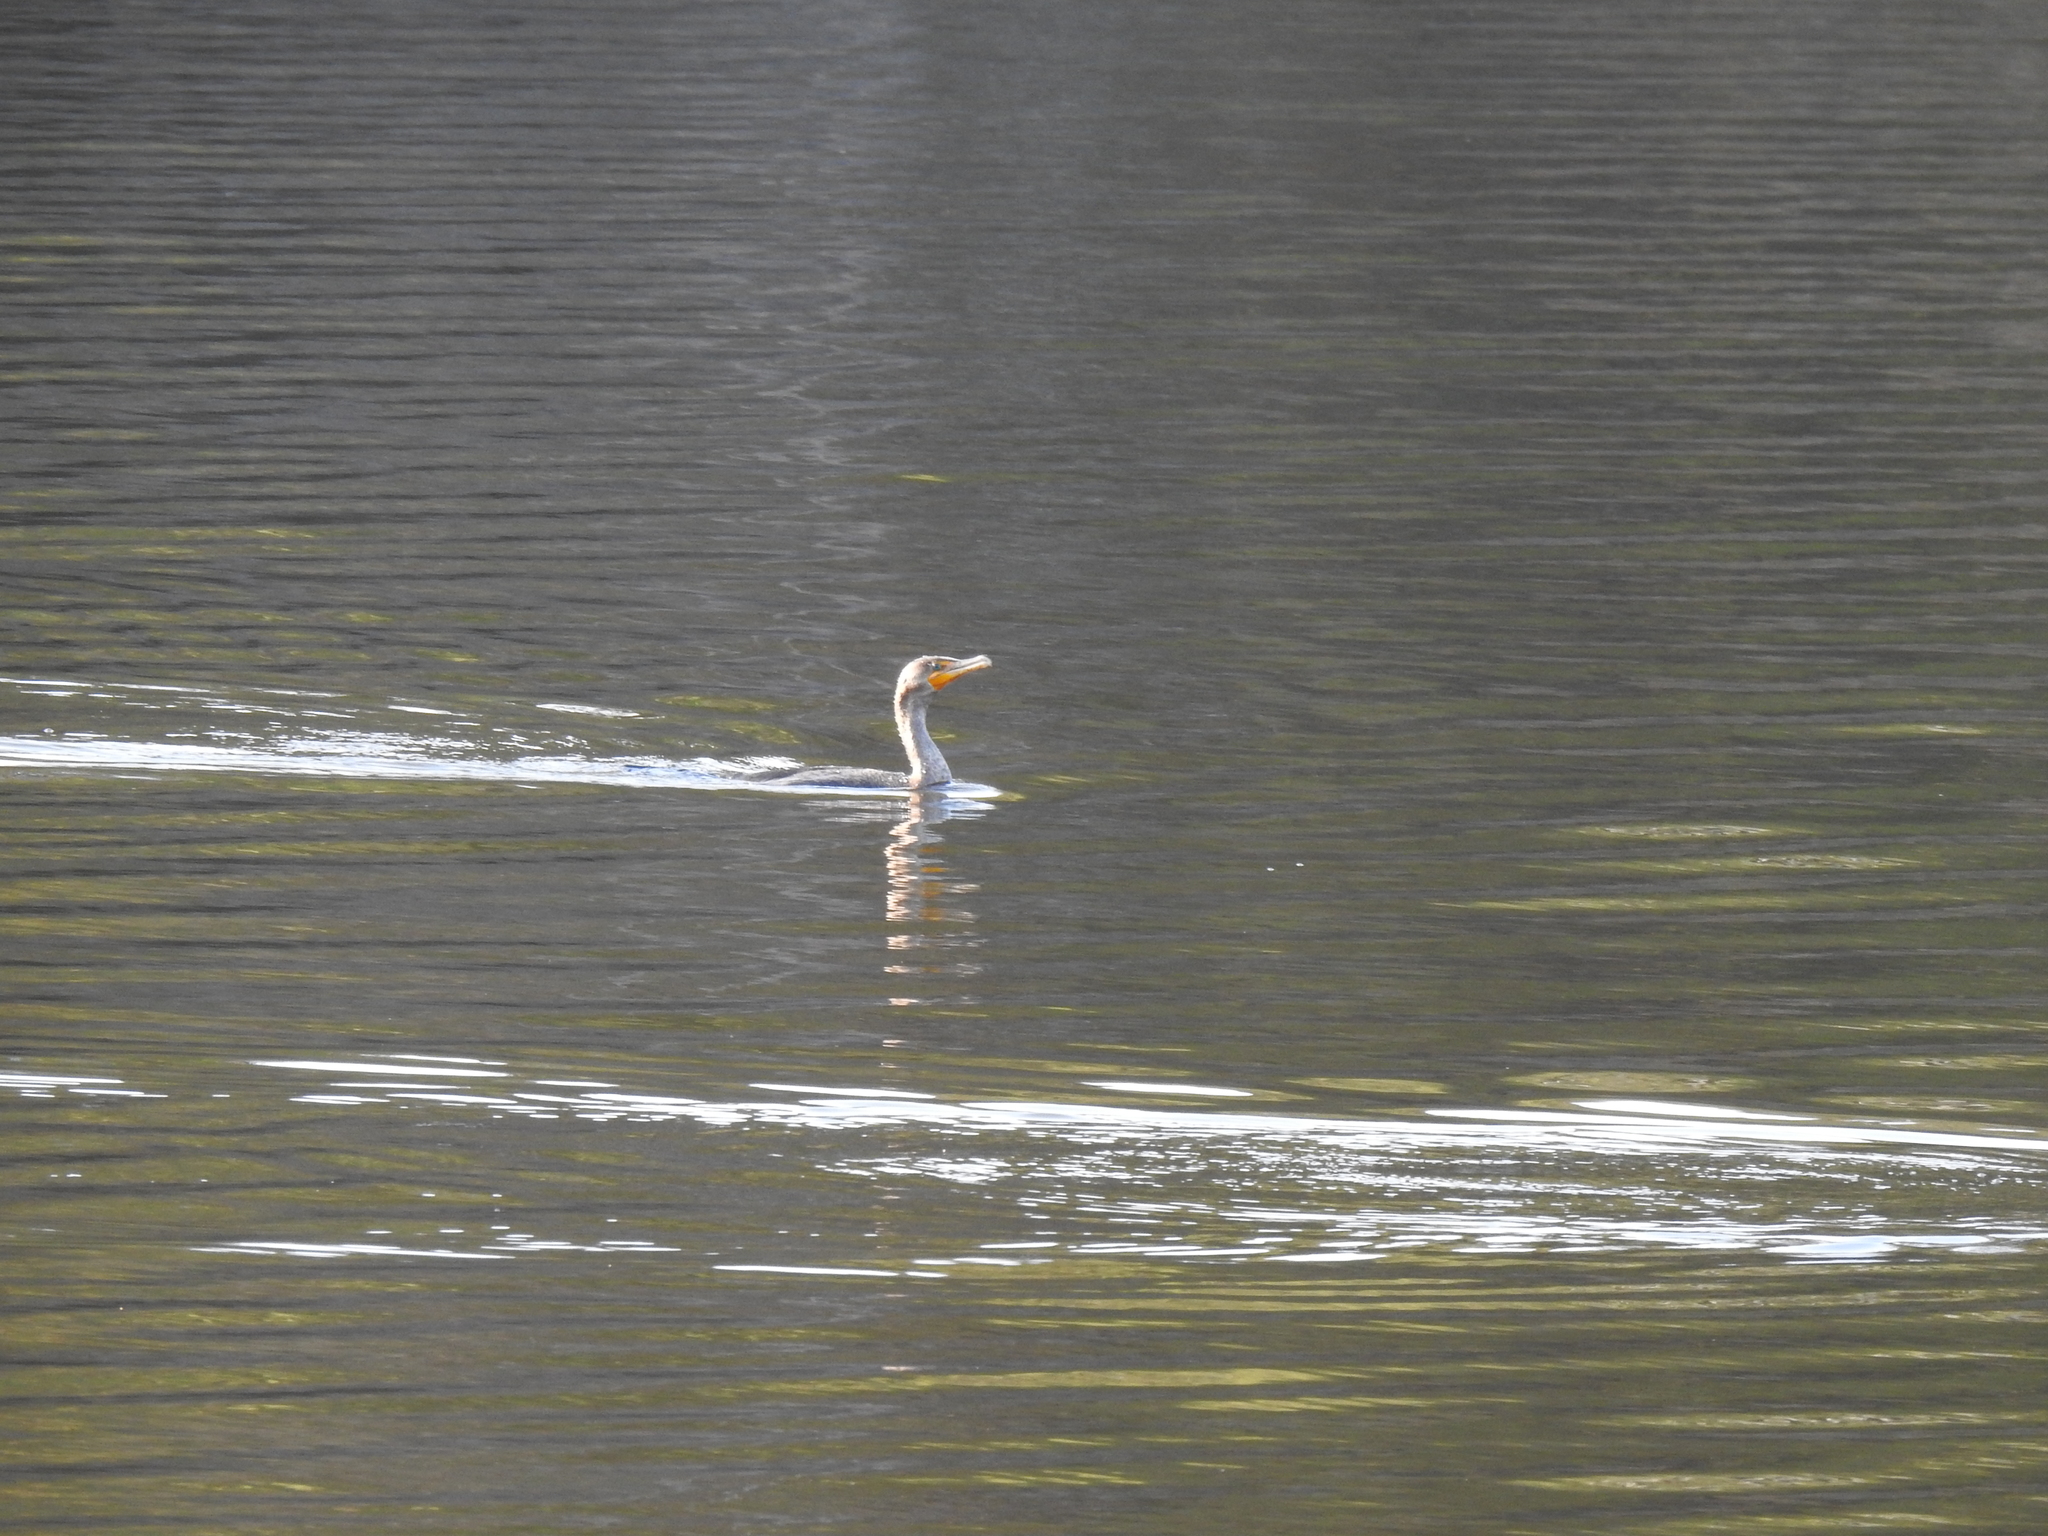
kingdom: Animalia
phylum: Chordata
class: Aves
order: Suliformes
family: Phalacrocoracidae
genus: Phalacrocorax
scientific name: Phalacrocorax auritus
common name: Double-crested cormorant
